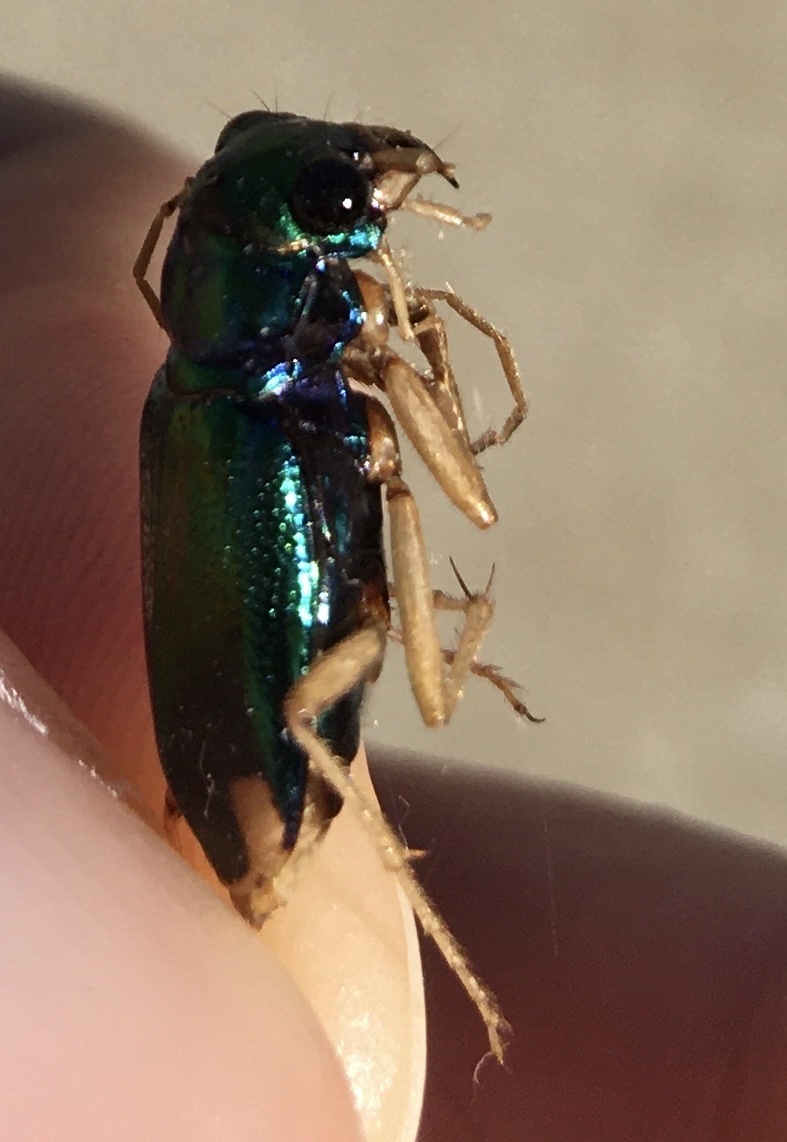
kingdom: Animalia
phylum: Arthropoda
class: Insecta
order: Coleoptera
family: Carabidae
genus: Tetracha
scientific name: Tetracha carolina
